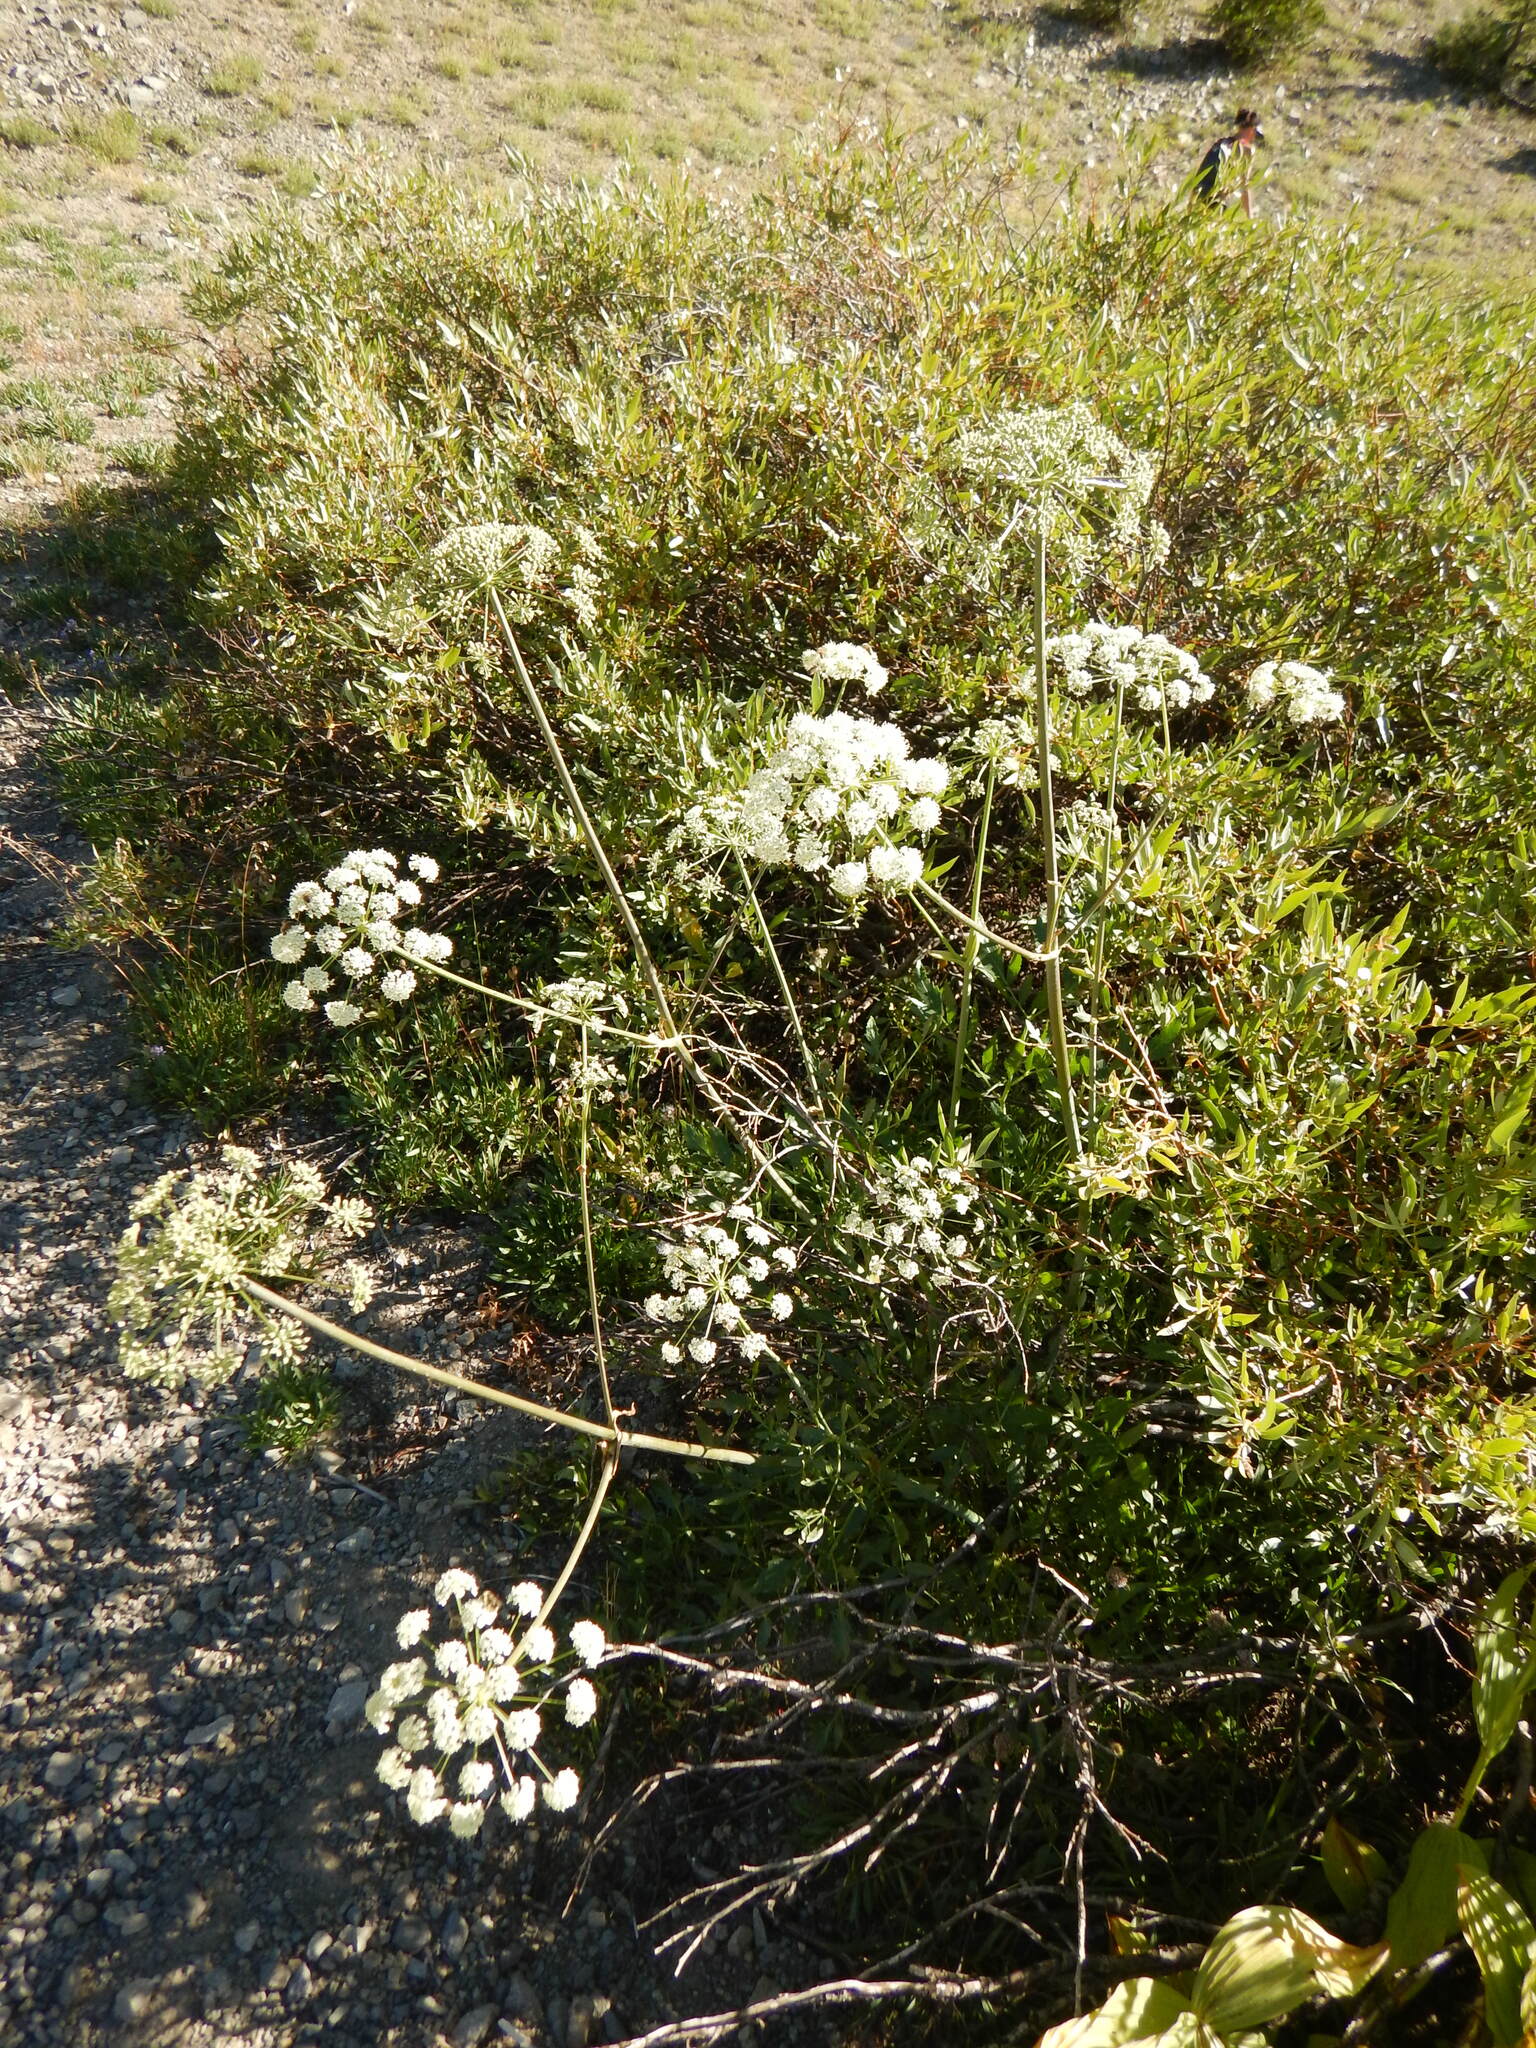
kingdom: Plantae
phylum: Tracheophyta
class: Magnoliopsida
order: Apiales
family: Apiaceae
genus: Angelica
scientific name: Angelica breweri
